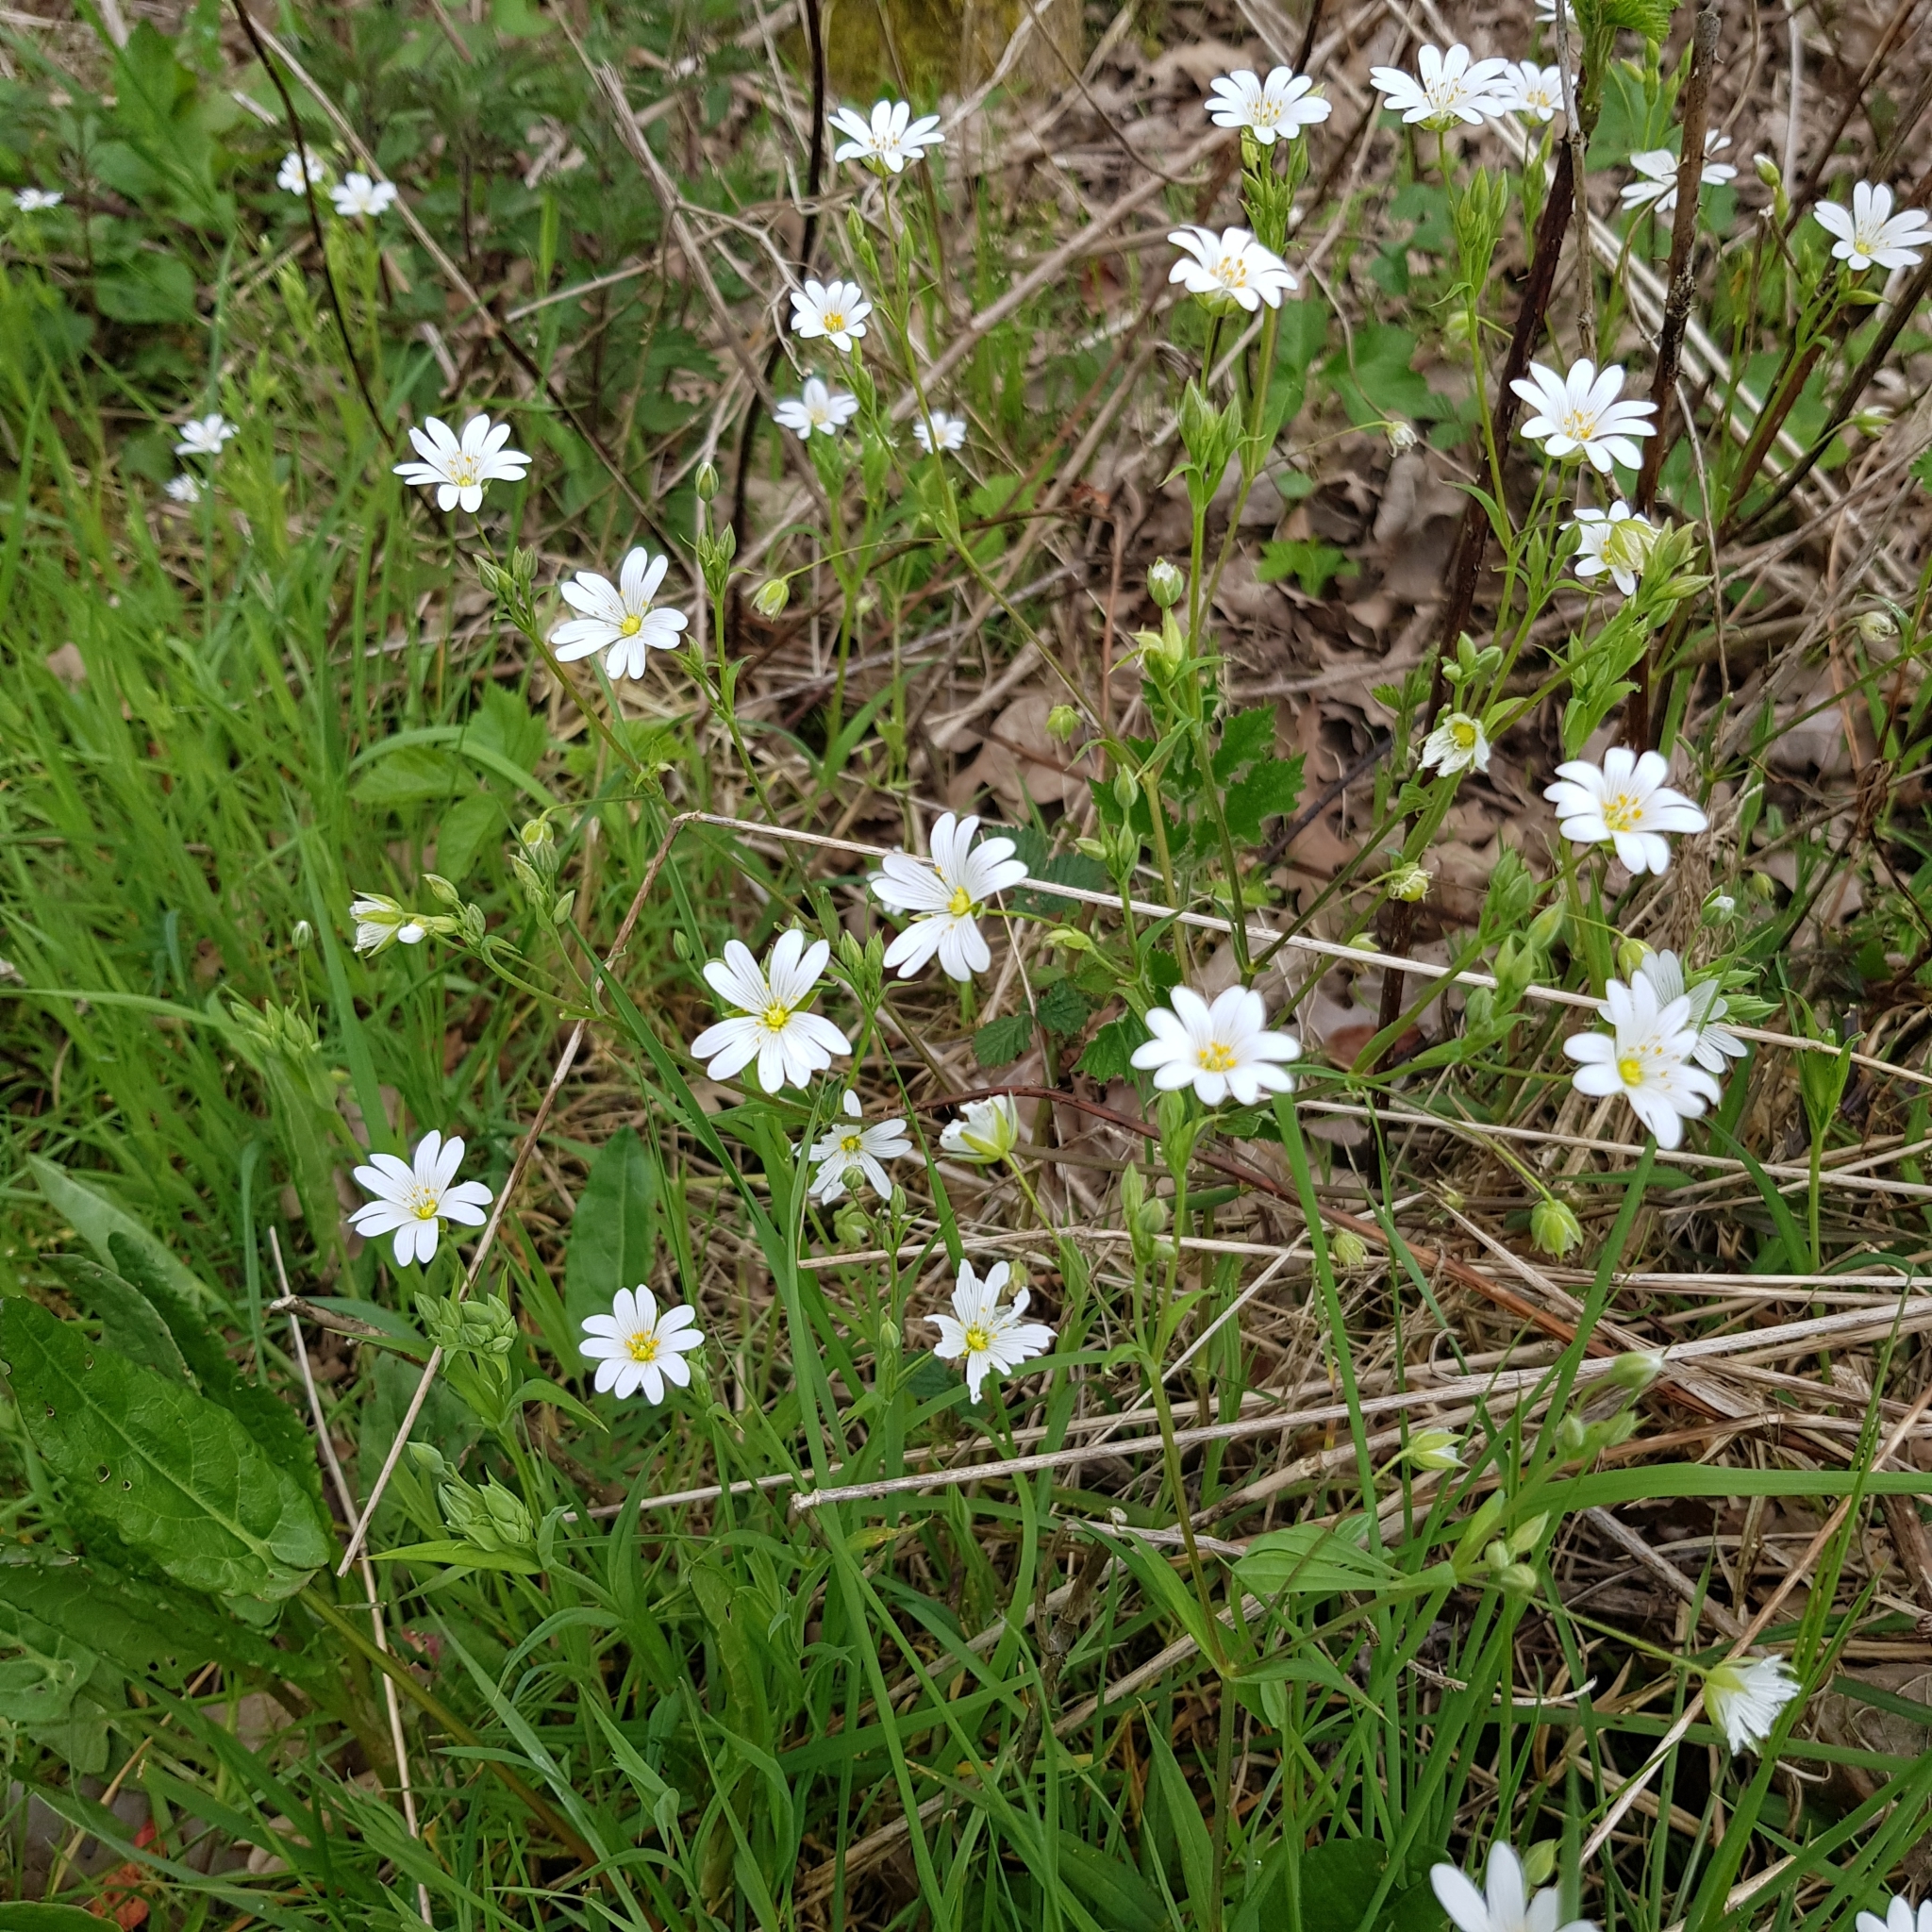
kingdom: Plantae
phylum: Tracheophyta
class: Magnoliopsida
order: Caryophyllales
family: Caryophyllaceae
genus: Rabelera
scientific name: Rabelera holostea
